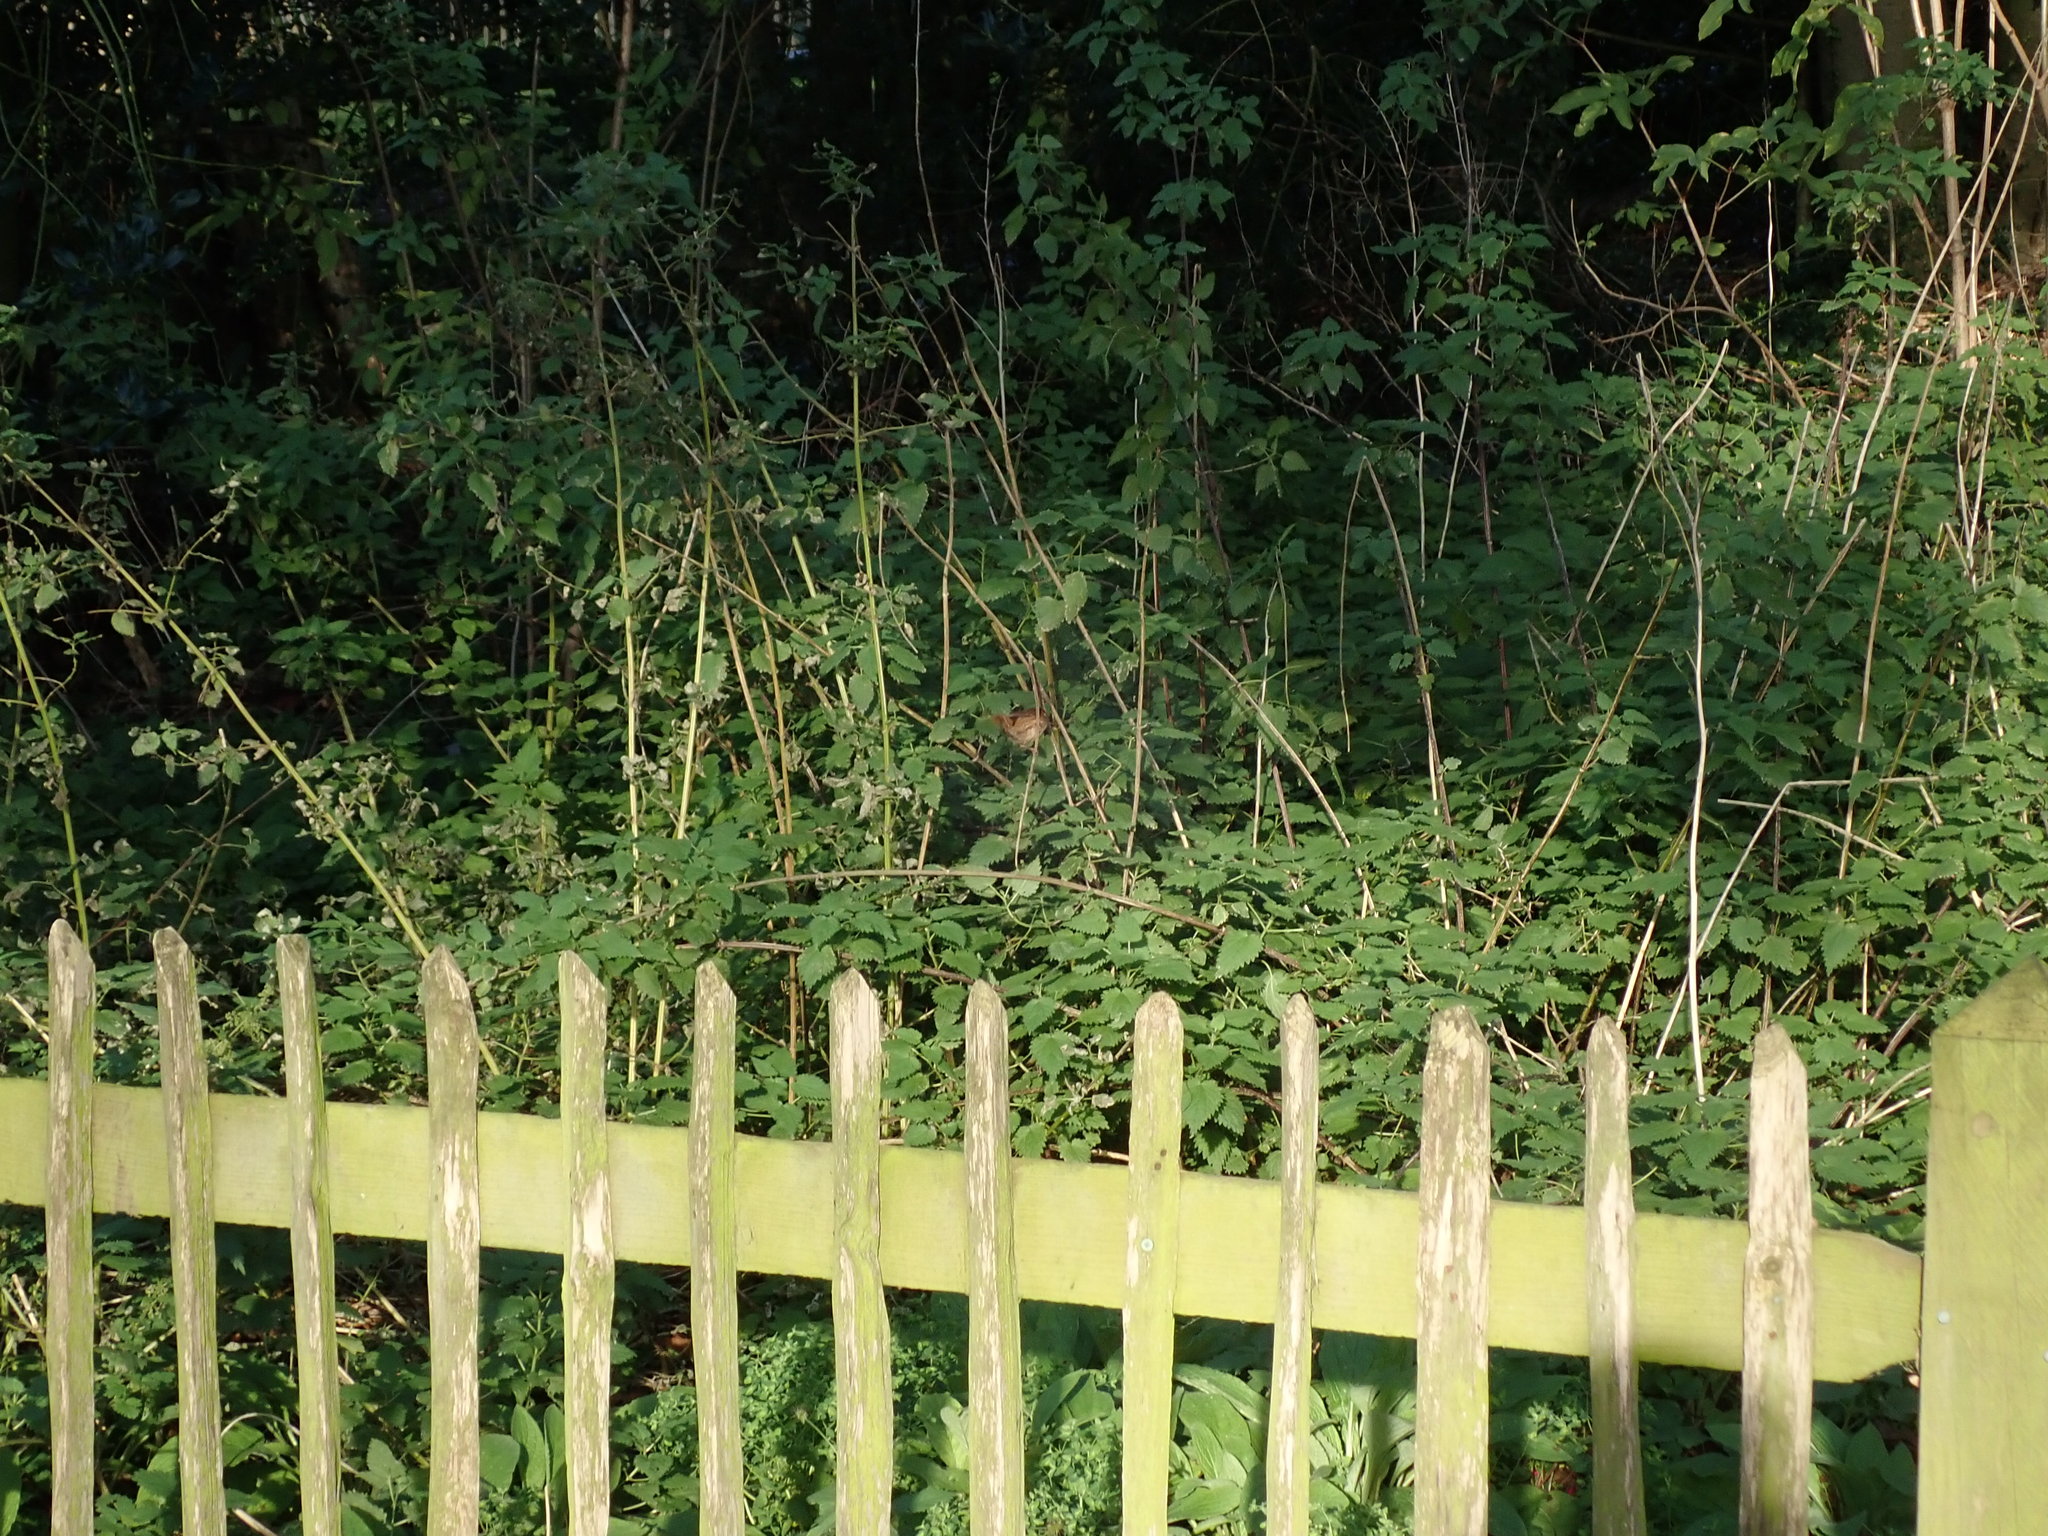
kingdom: Animalia
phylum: Chordata
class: Aves
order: Passeriformes
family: Troglodytidae
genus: Troglodytes
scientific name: Troglodytes troglodytes
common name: Eurasian wren
